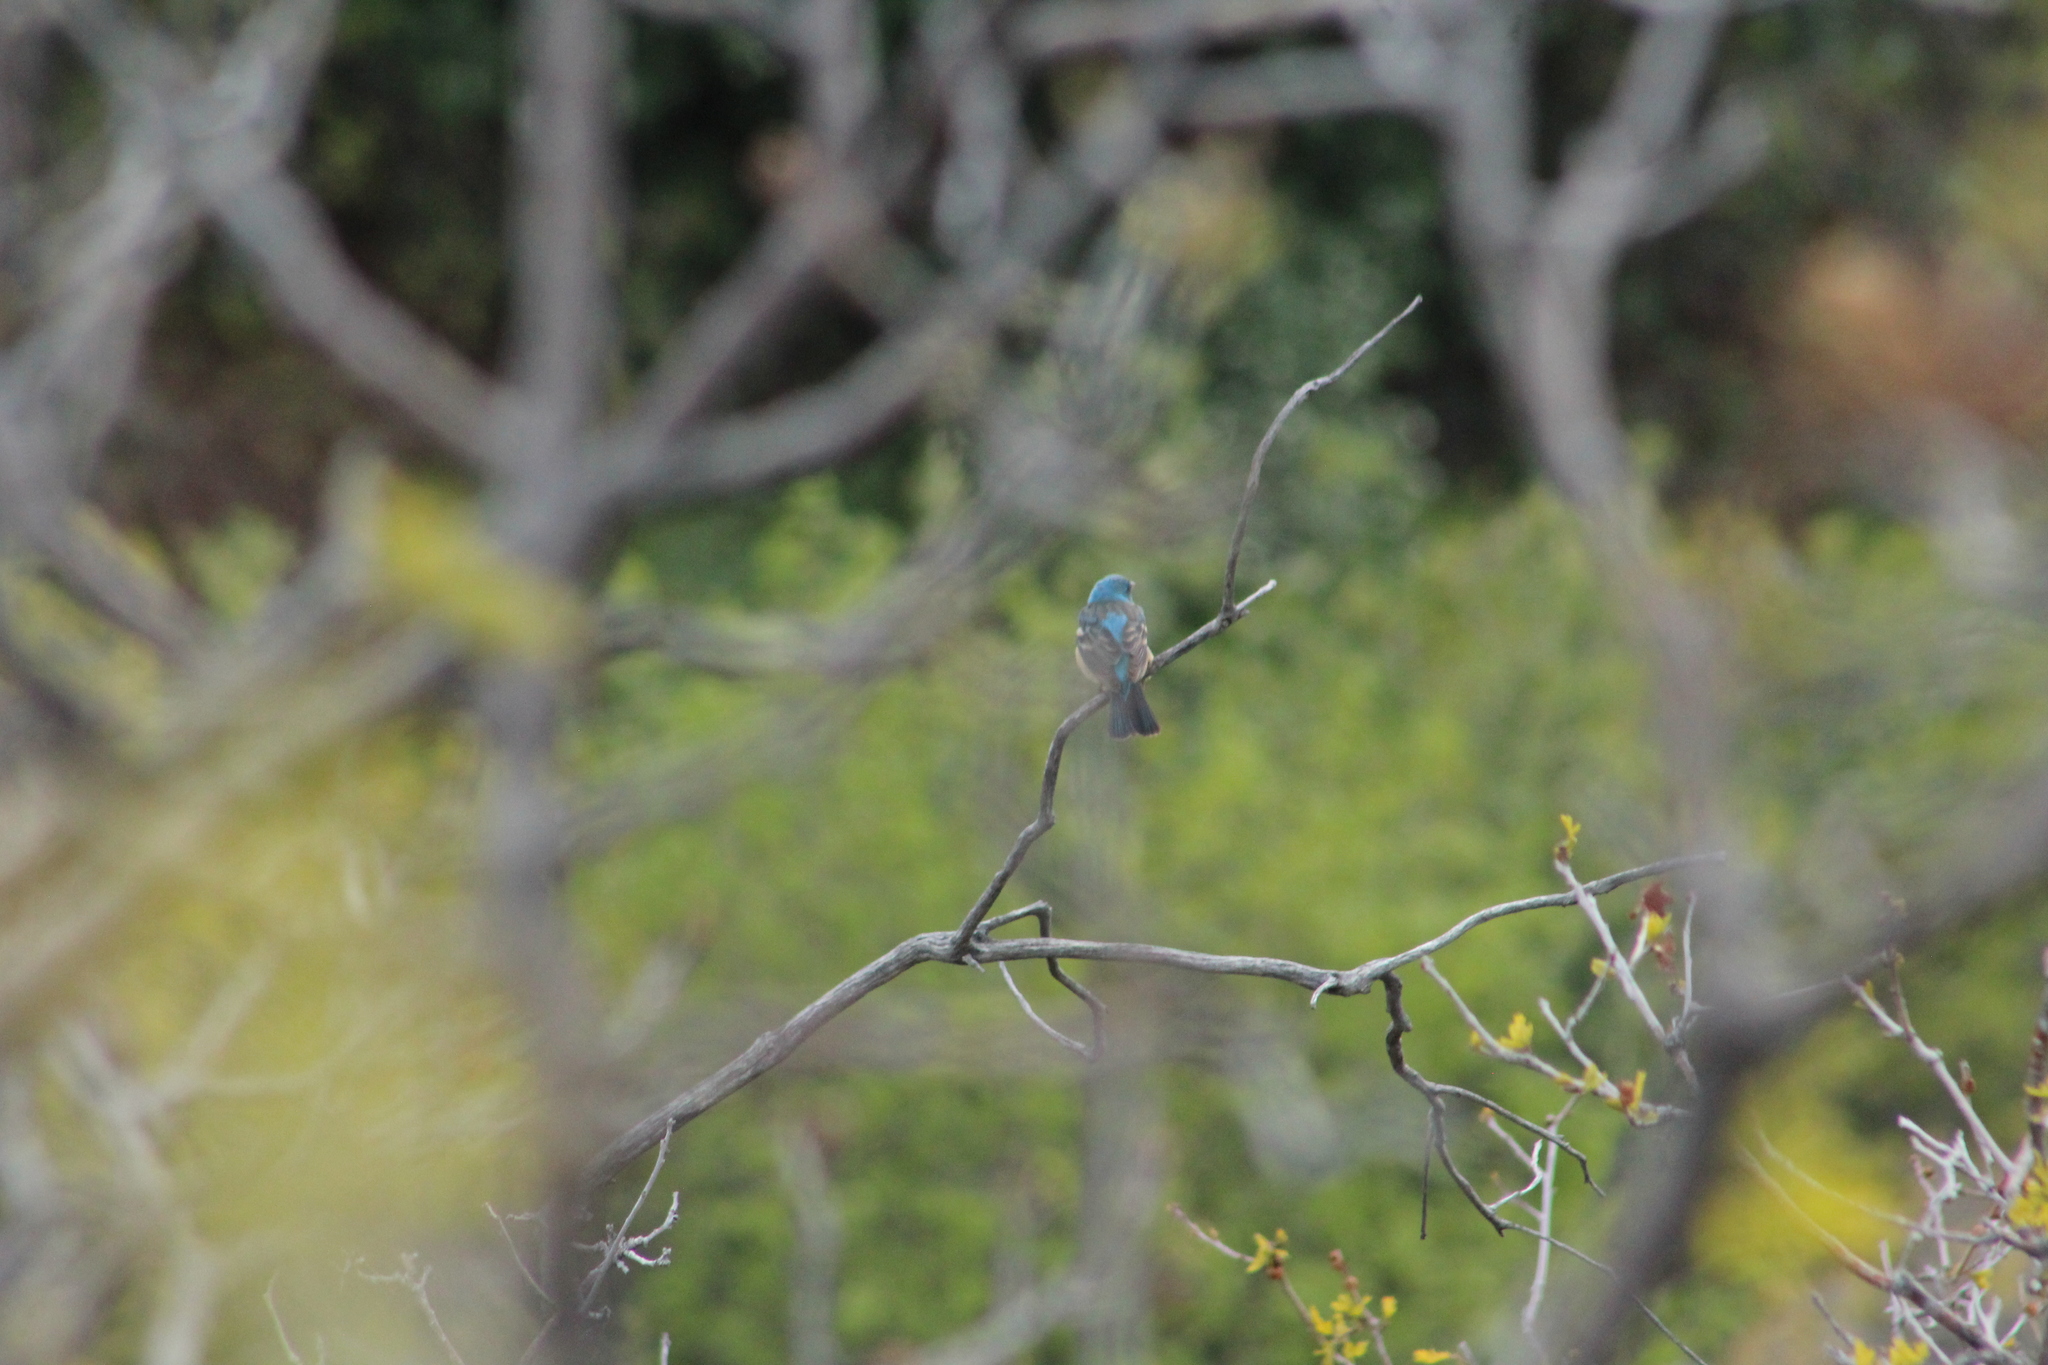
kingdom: Animalia
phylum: Chordata
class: Aves
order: Passeriformes
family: Cardinalidae
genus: Passerina
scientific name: Passerina amoena
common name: Lazuli bunting
